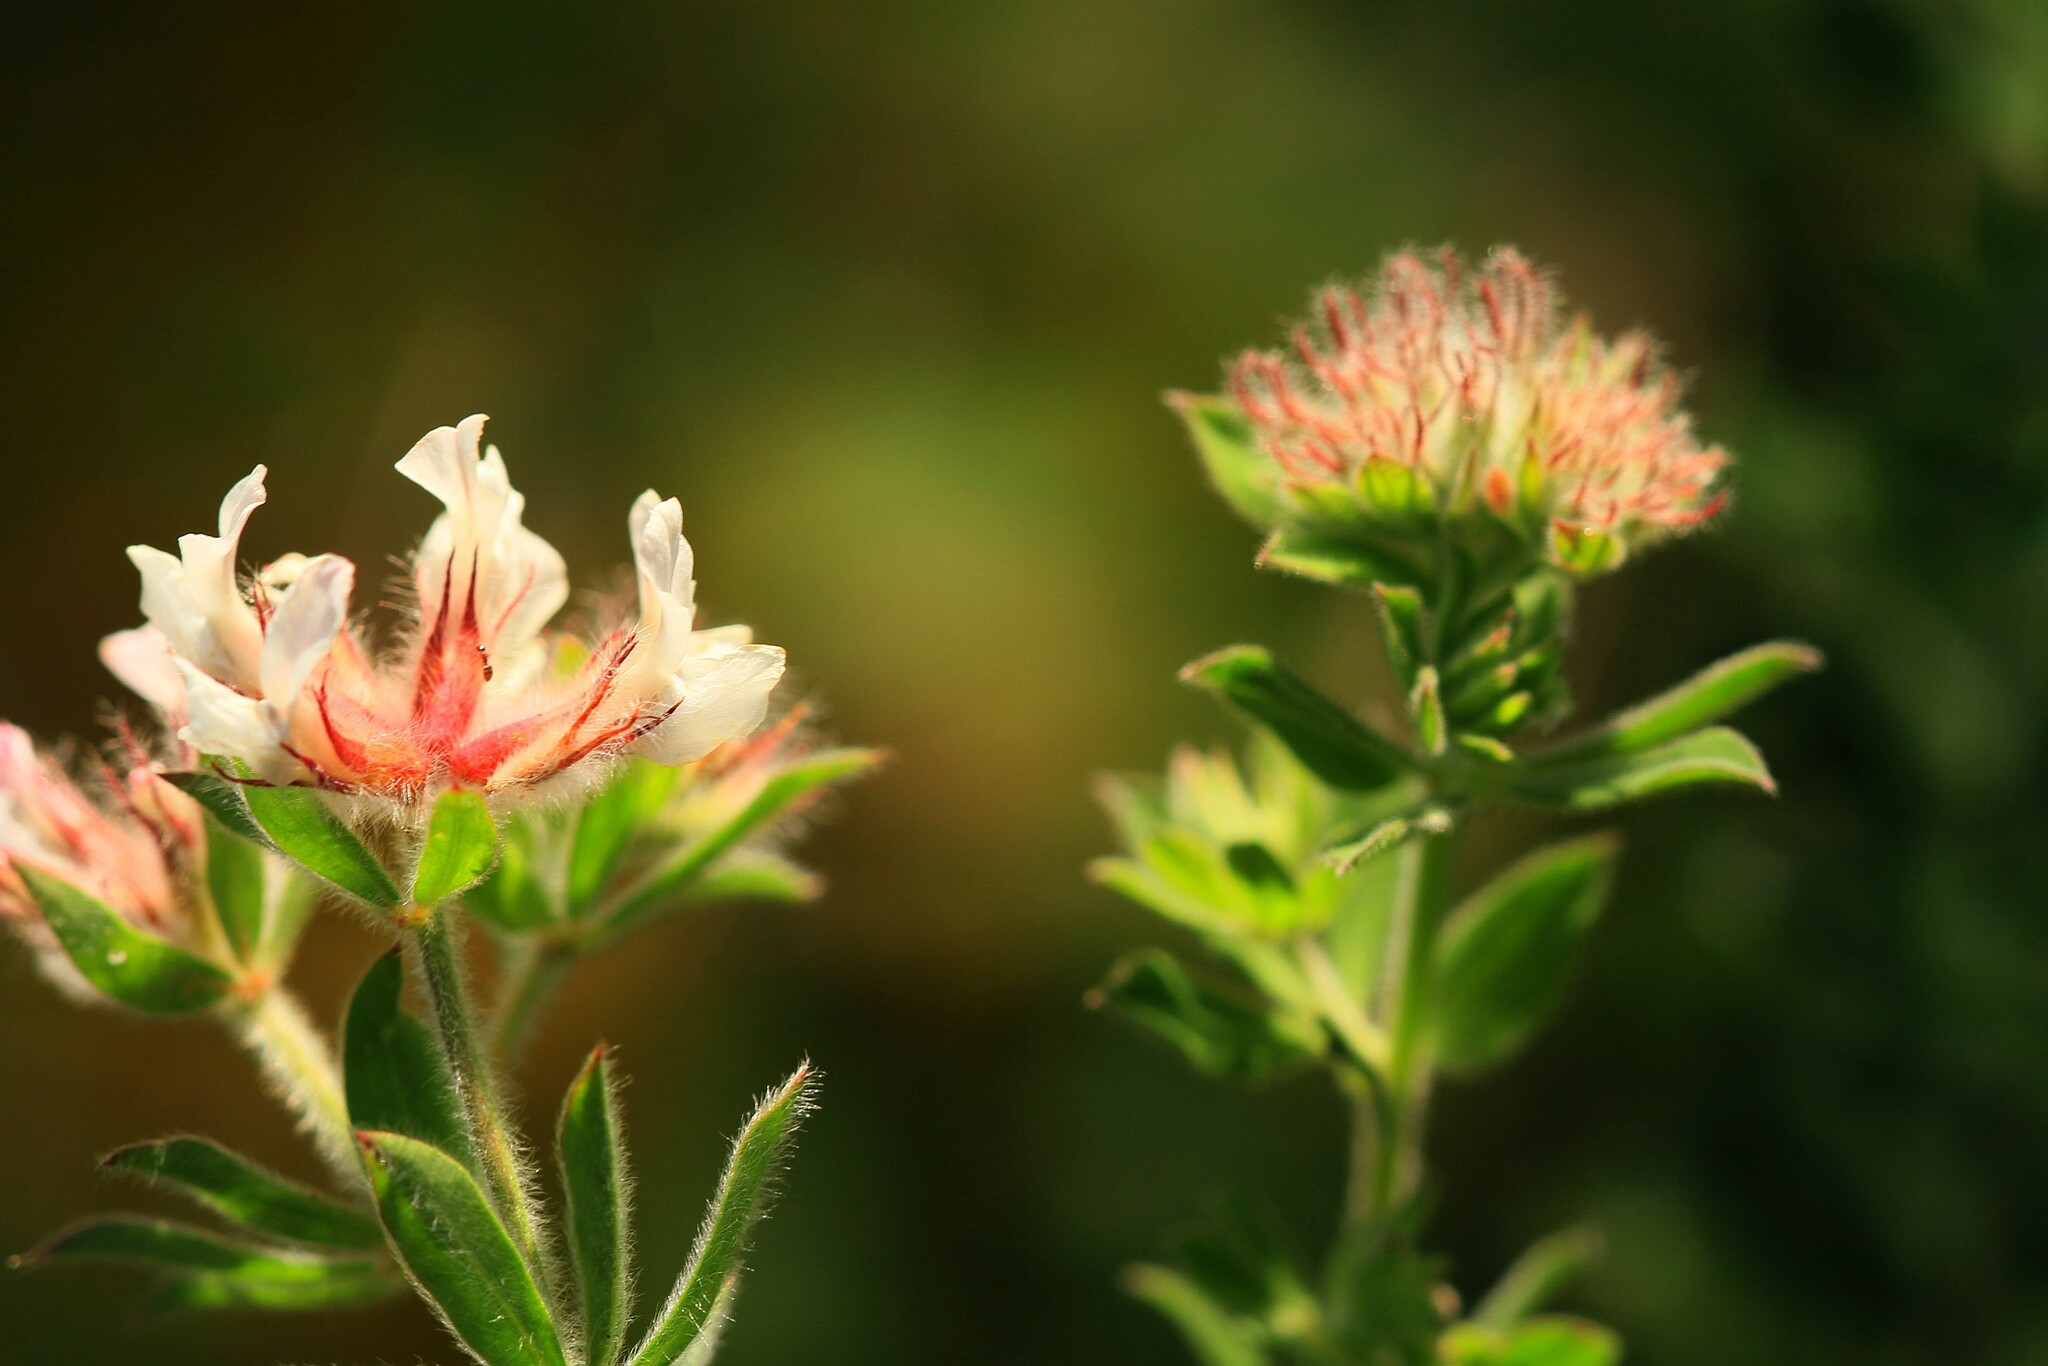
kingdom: Plantae
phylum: Tracheophyta
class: Magnoliopsida
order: Fabales
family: Fabaceae
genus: Lotus
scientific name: Lotus hirsutus
